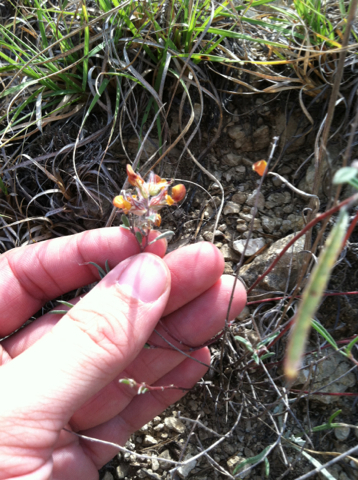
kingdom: Plantae
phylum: Tracheophyta
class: Magnoliopsida
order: Fabales
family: Fabaceae
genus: Dalea
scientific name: Dalea hallii
